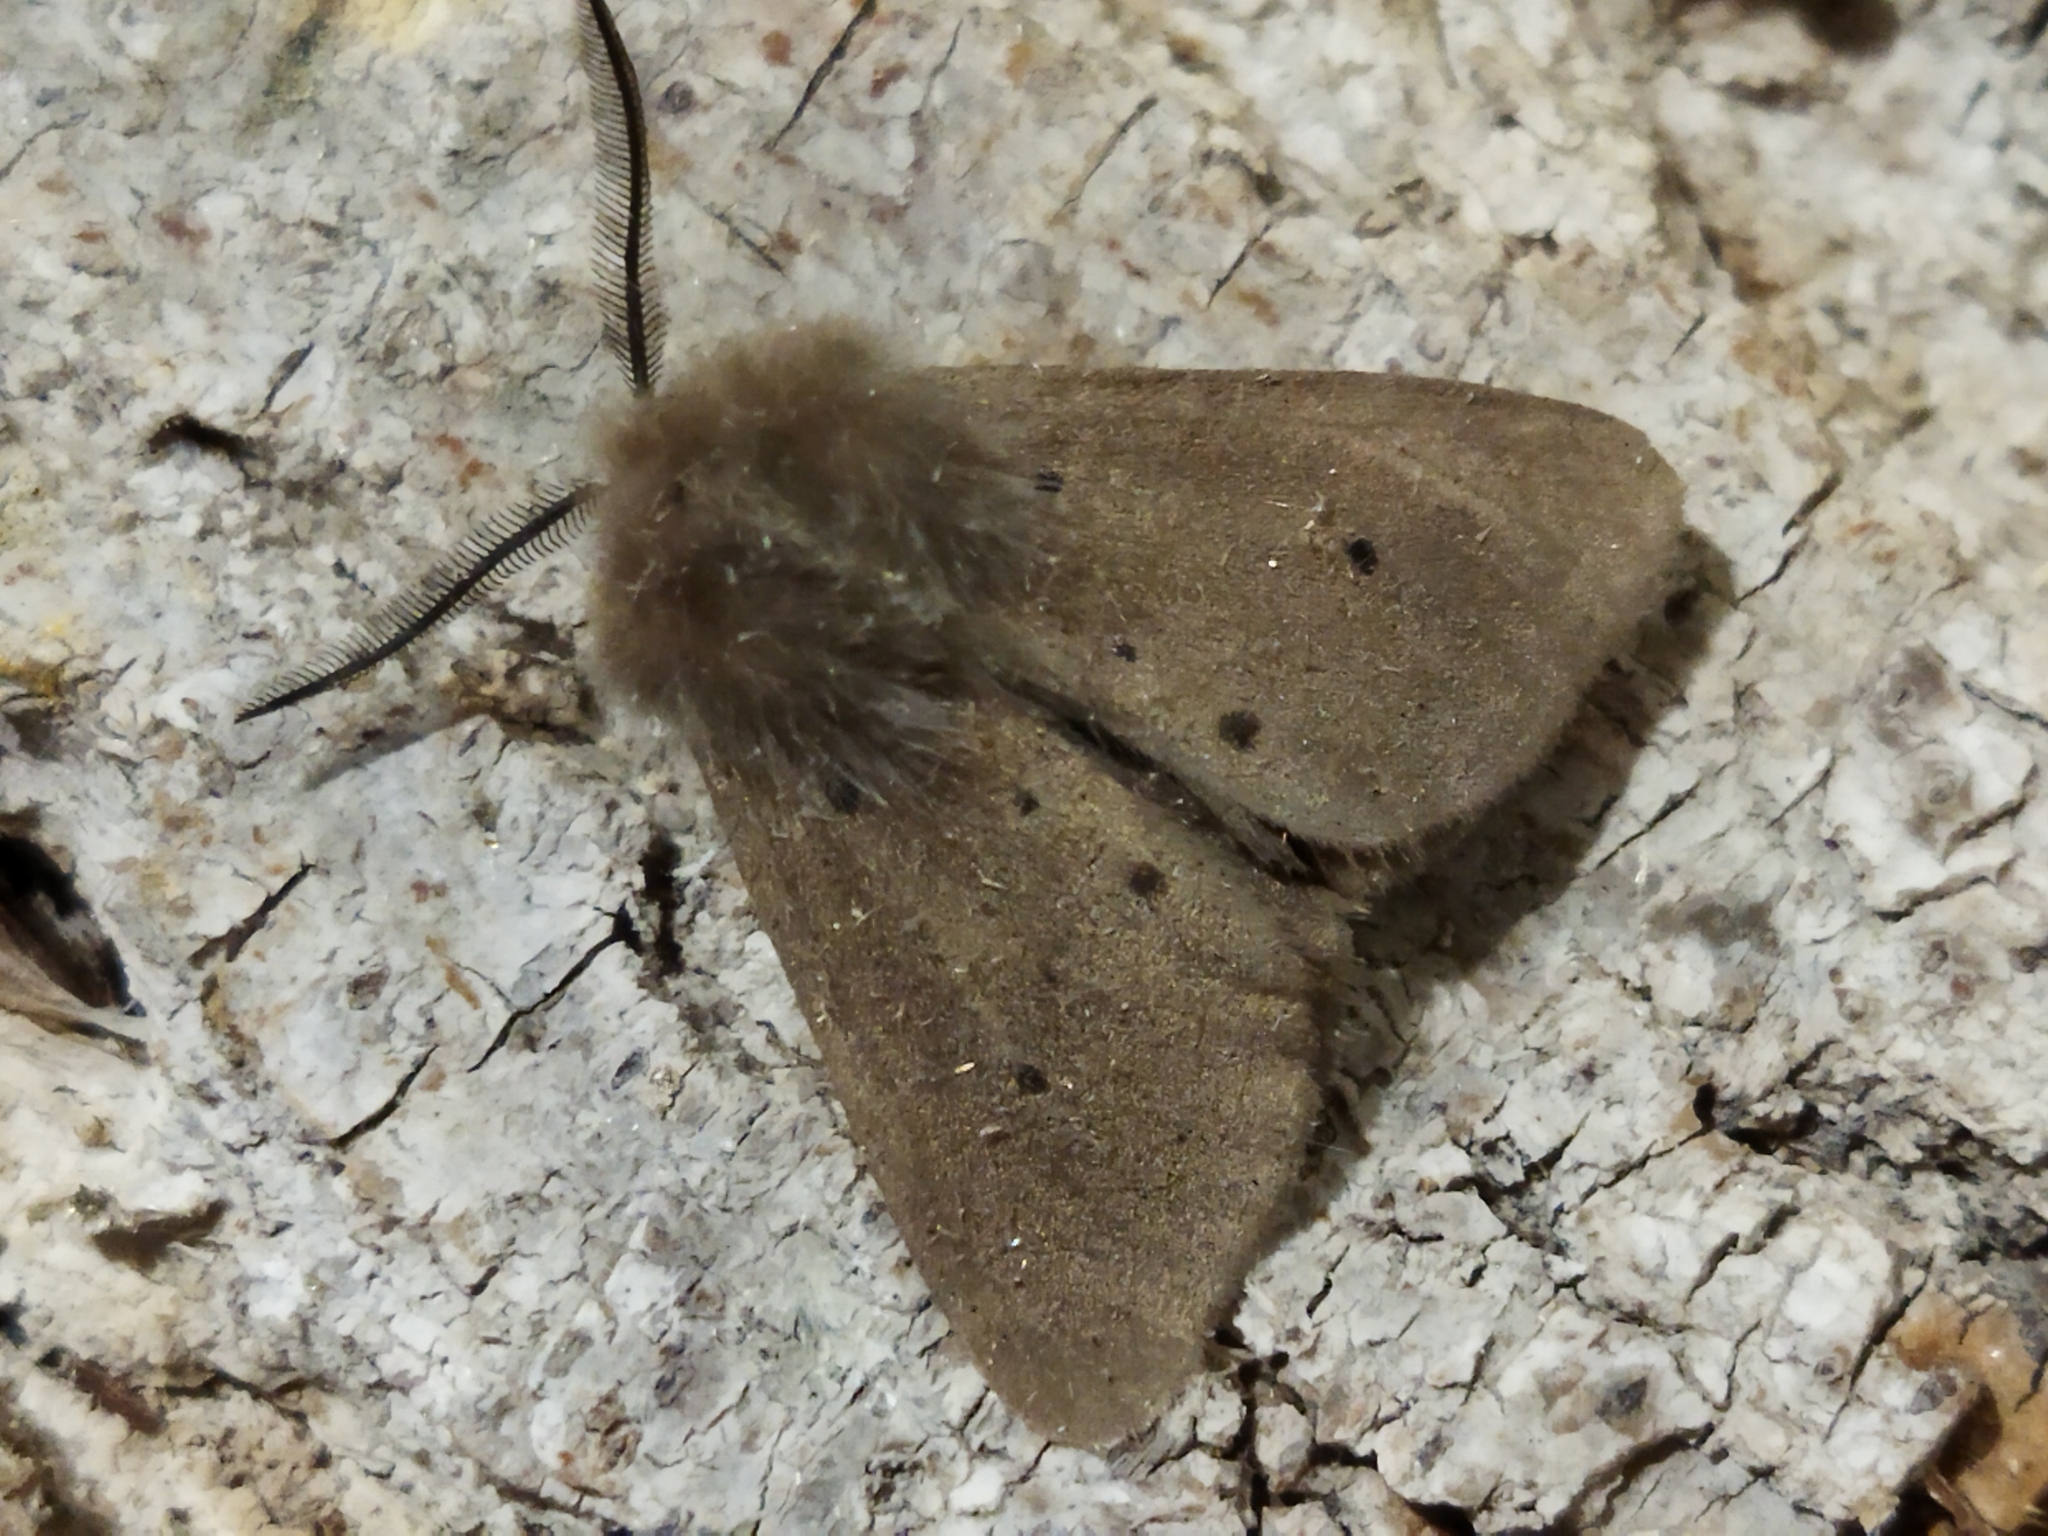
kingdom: Animalia
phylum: Arthropoda
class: Insecta
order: Lepidoptera
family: Erebidae
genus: Diaphora
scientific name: Diaphora mendica
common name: Muslin moth
